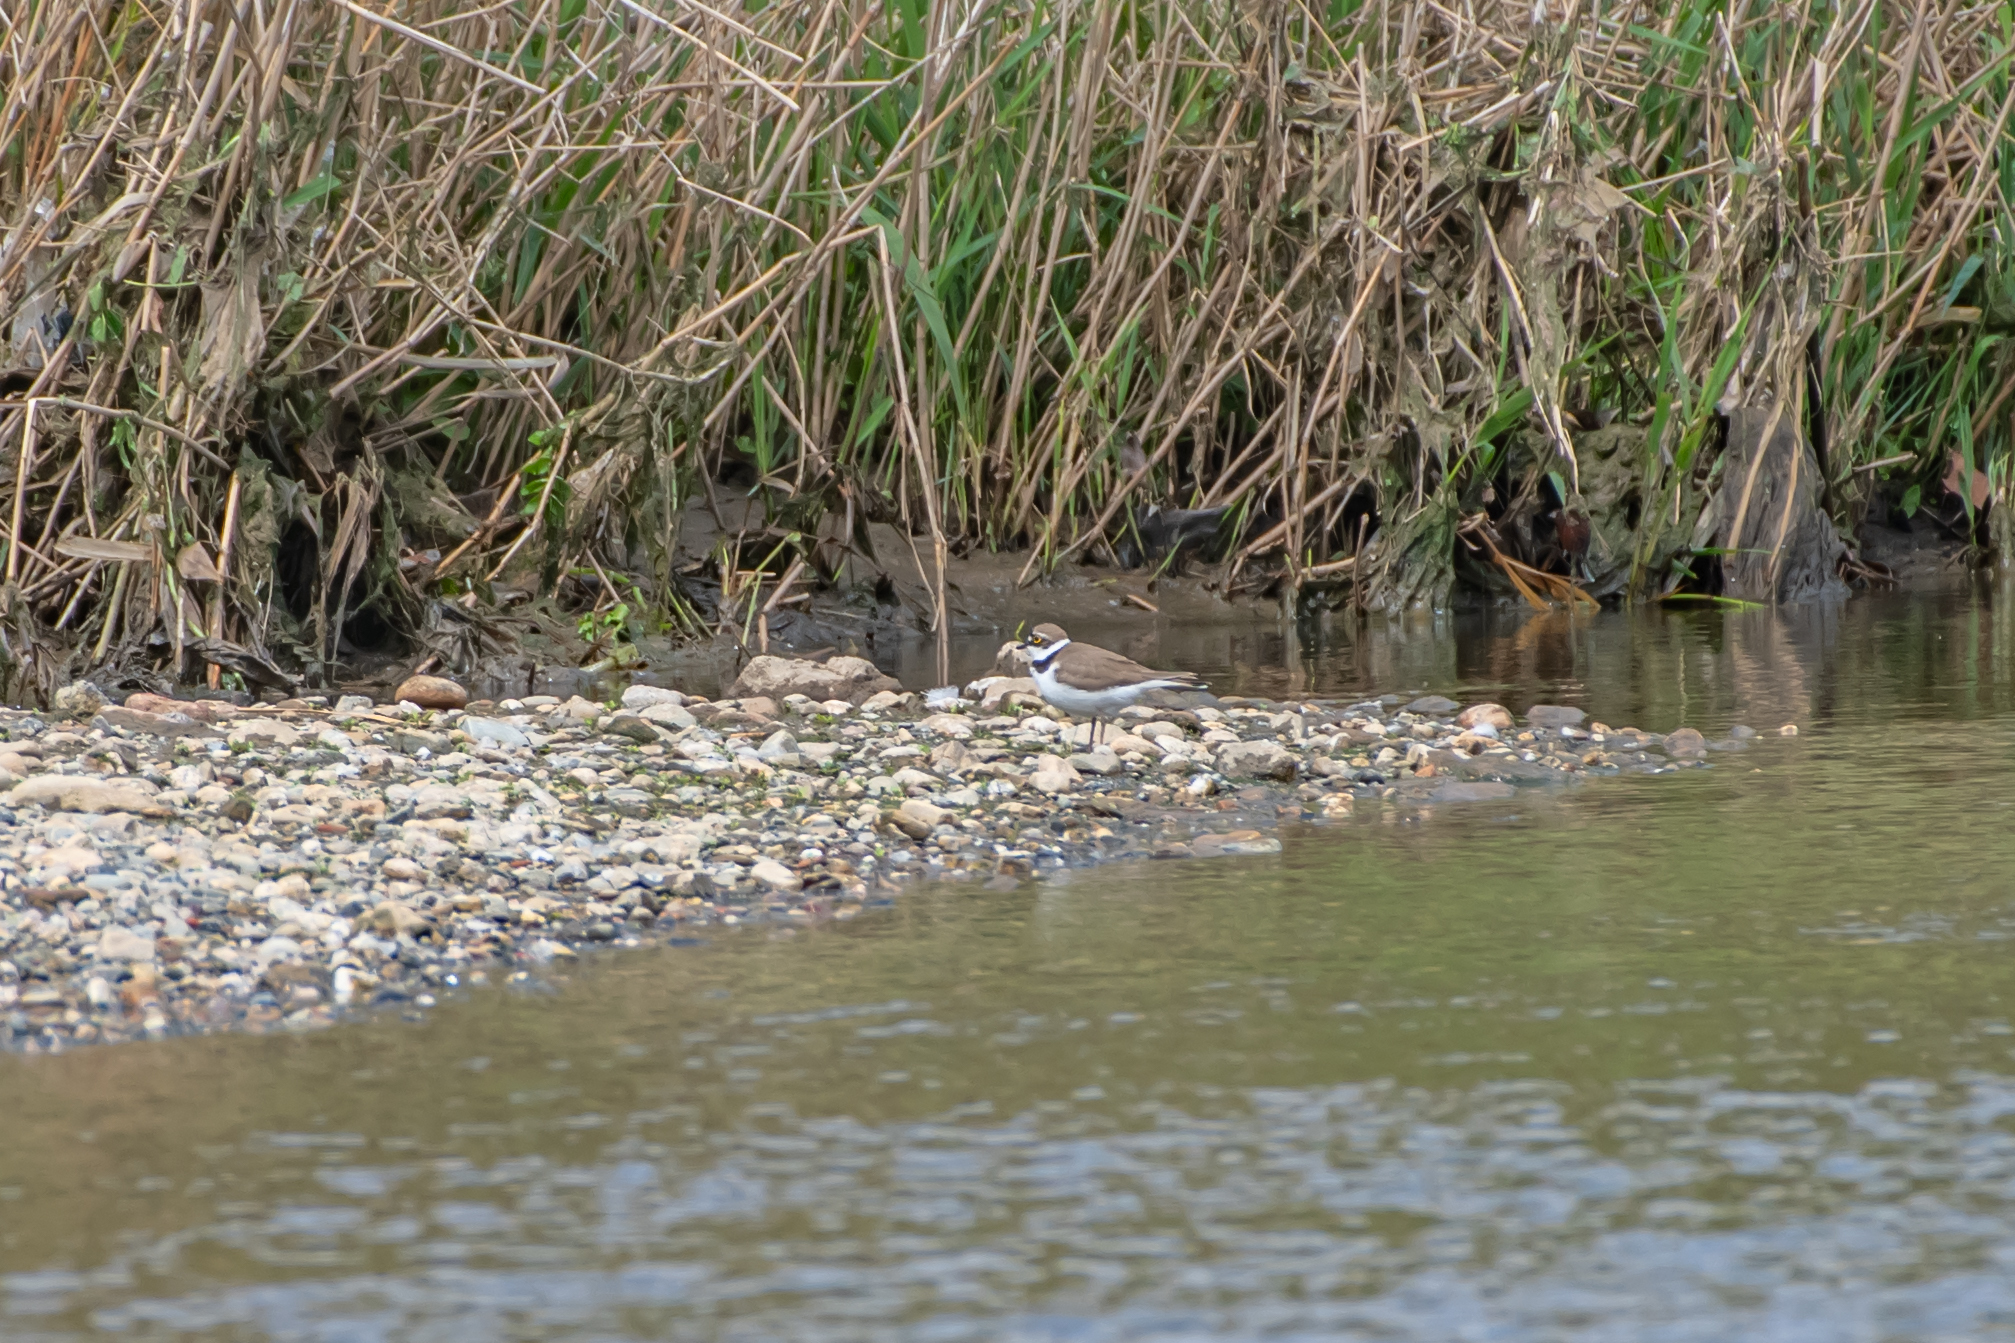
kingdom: Animalia
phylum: Chordata
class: Aves
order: Charadriiformes
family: Charadriidae
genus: Charadrius
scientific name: Charadrius dubius
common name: Little ringed plover
